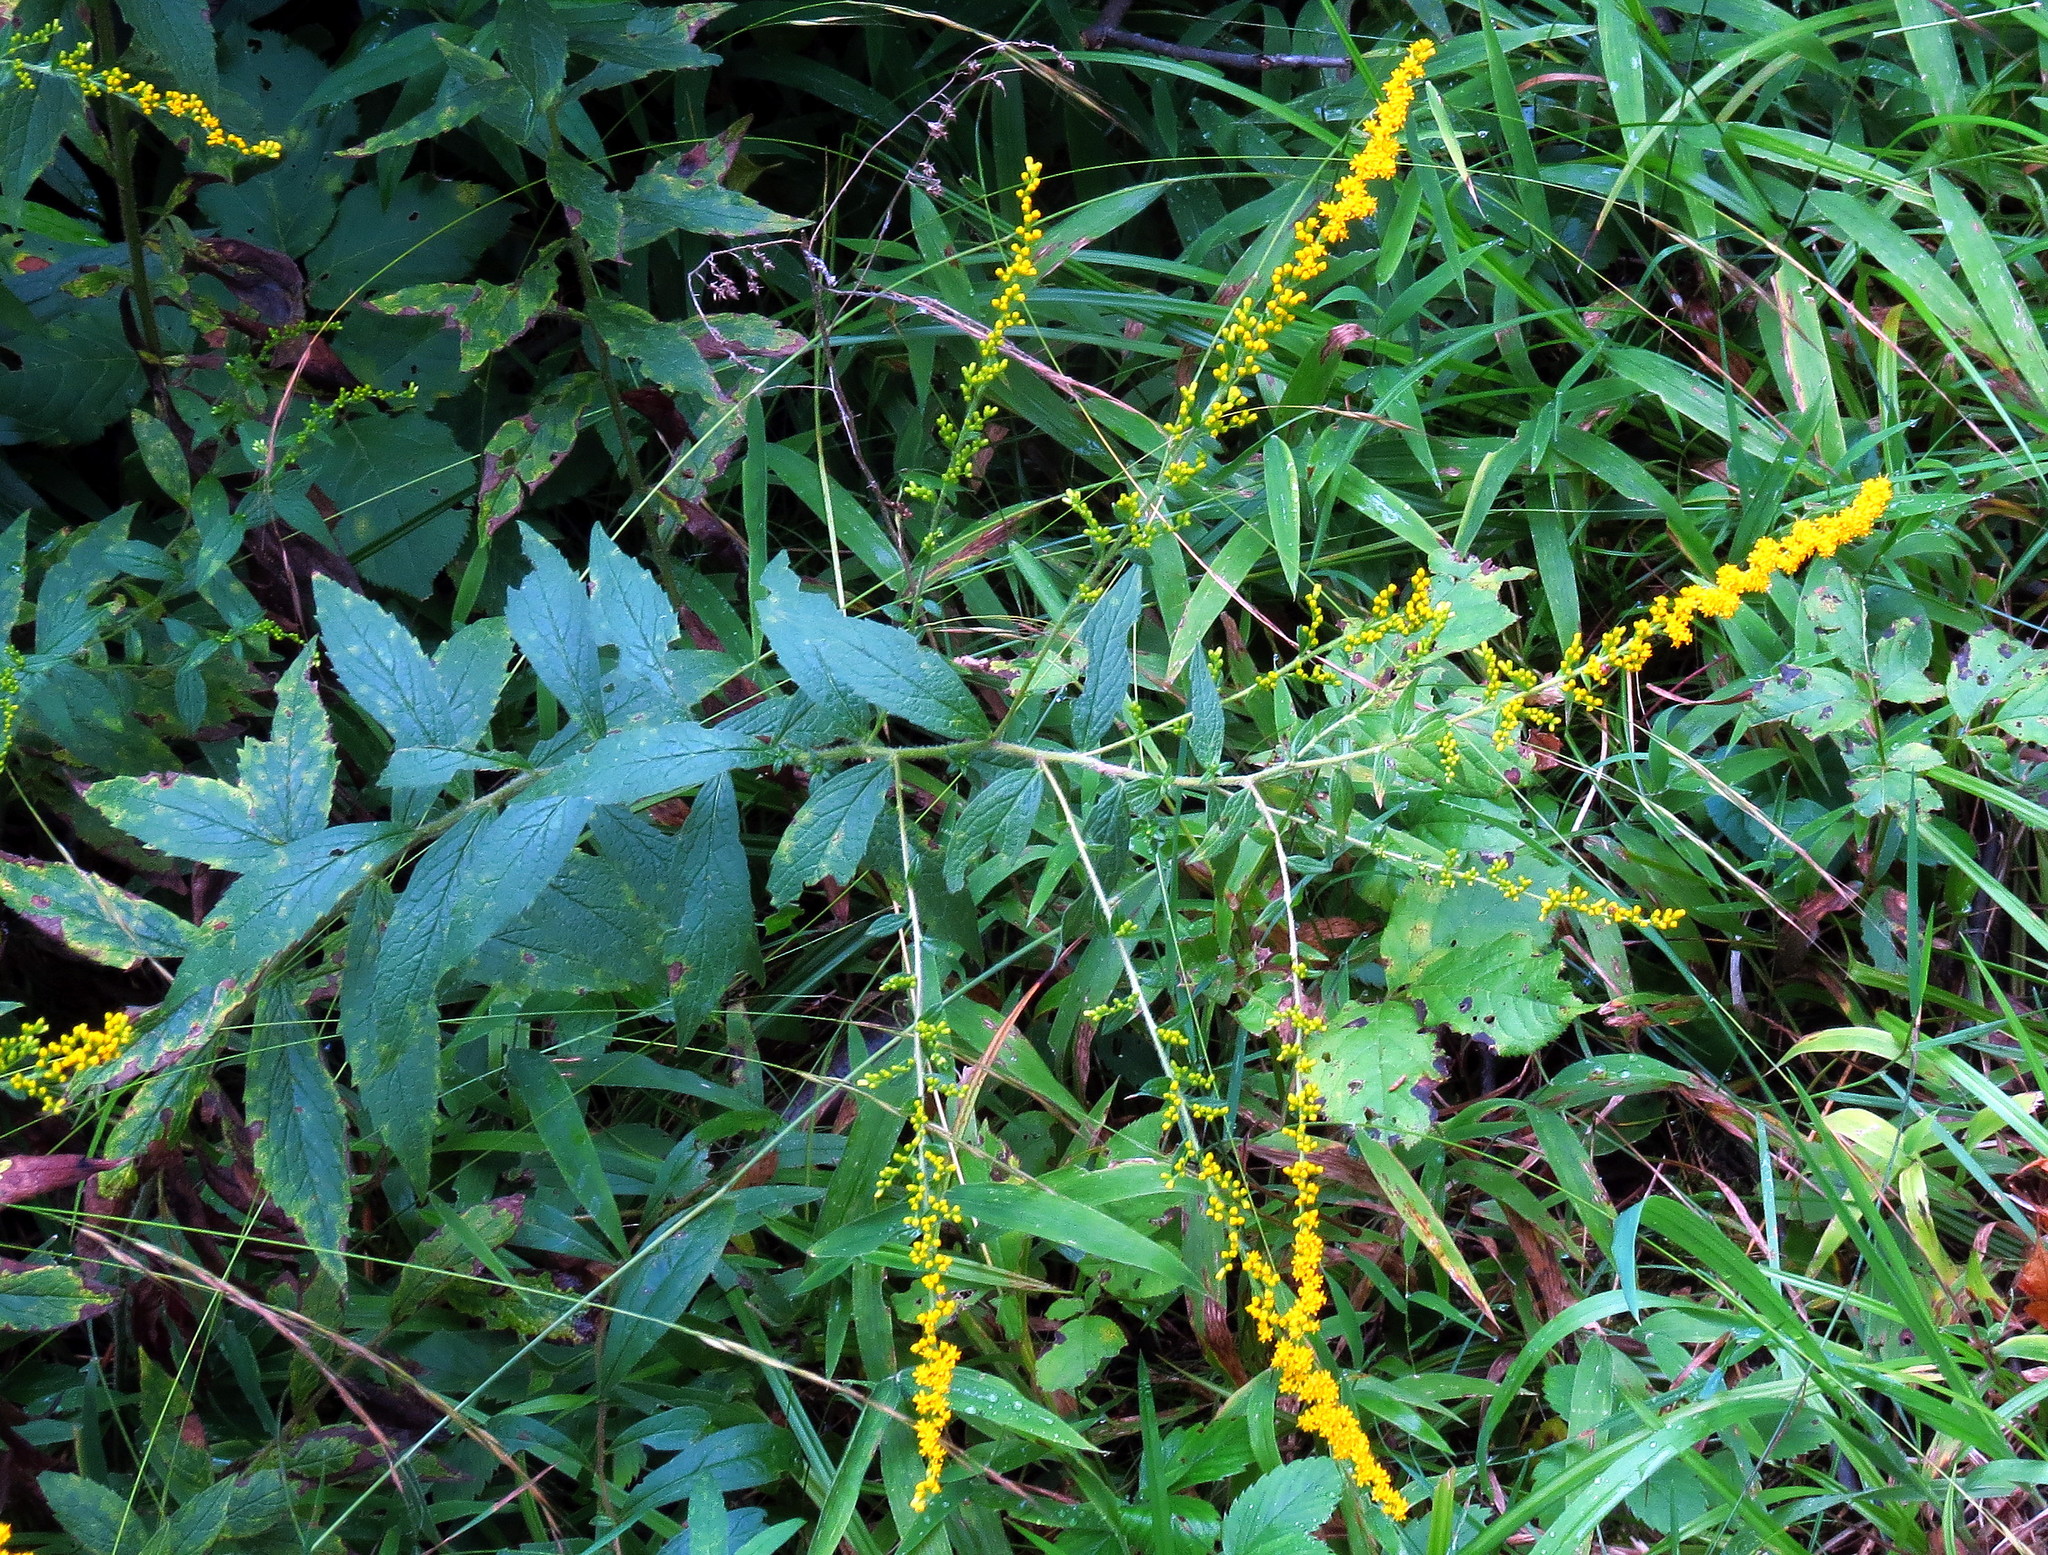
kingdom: Plantae
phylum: Tracheophyta
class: Magnoliopsida
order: Asterales
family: Asteraceae
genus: Solidago
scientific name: Solidago rugosa
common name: Rough-stemmed goldenrod
